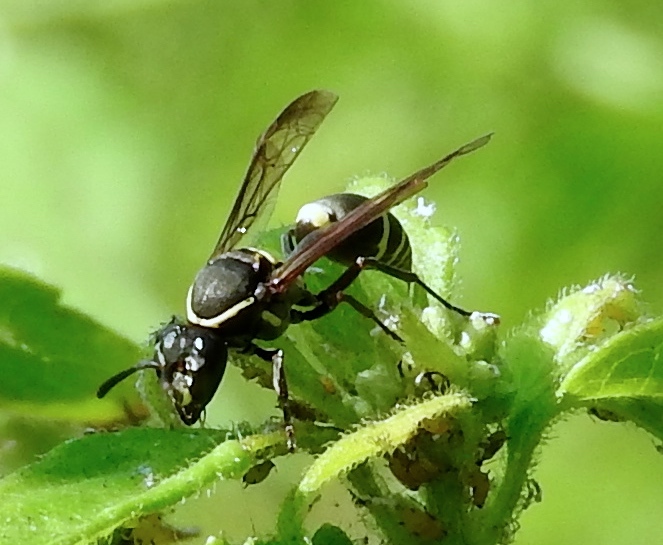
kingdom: Animalia
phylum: Arthropoda
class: Insecta
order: Hymenoptera
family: Eumenidae
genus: Polybia
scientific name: Polybia plebeja
